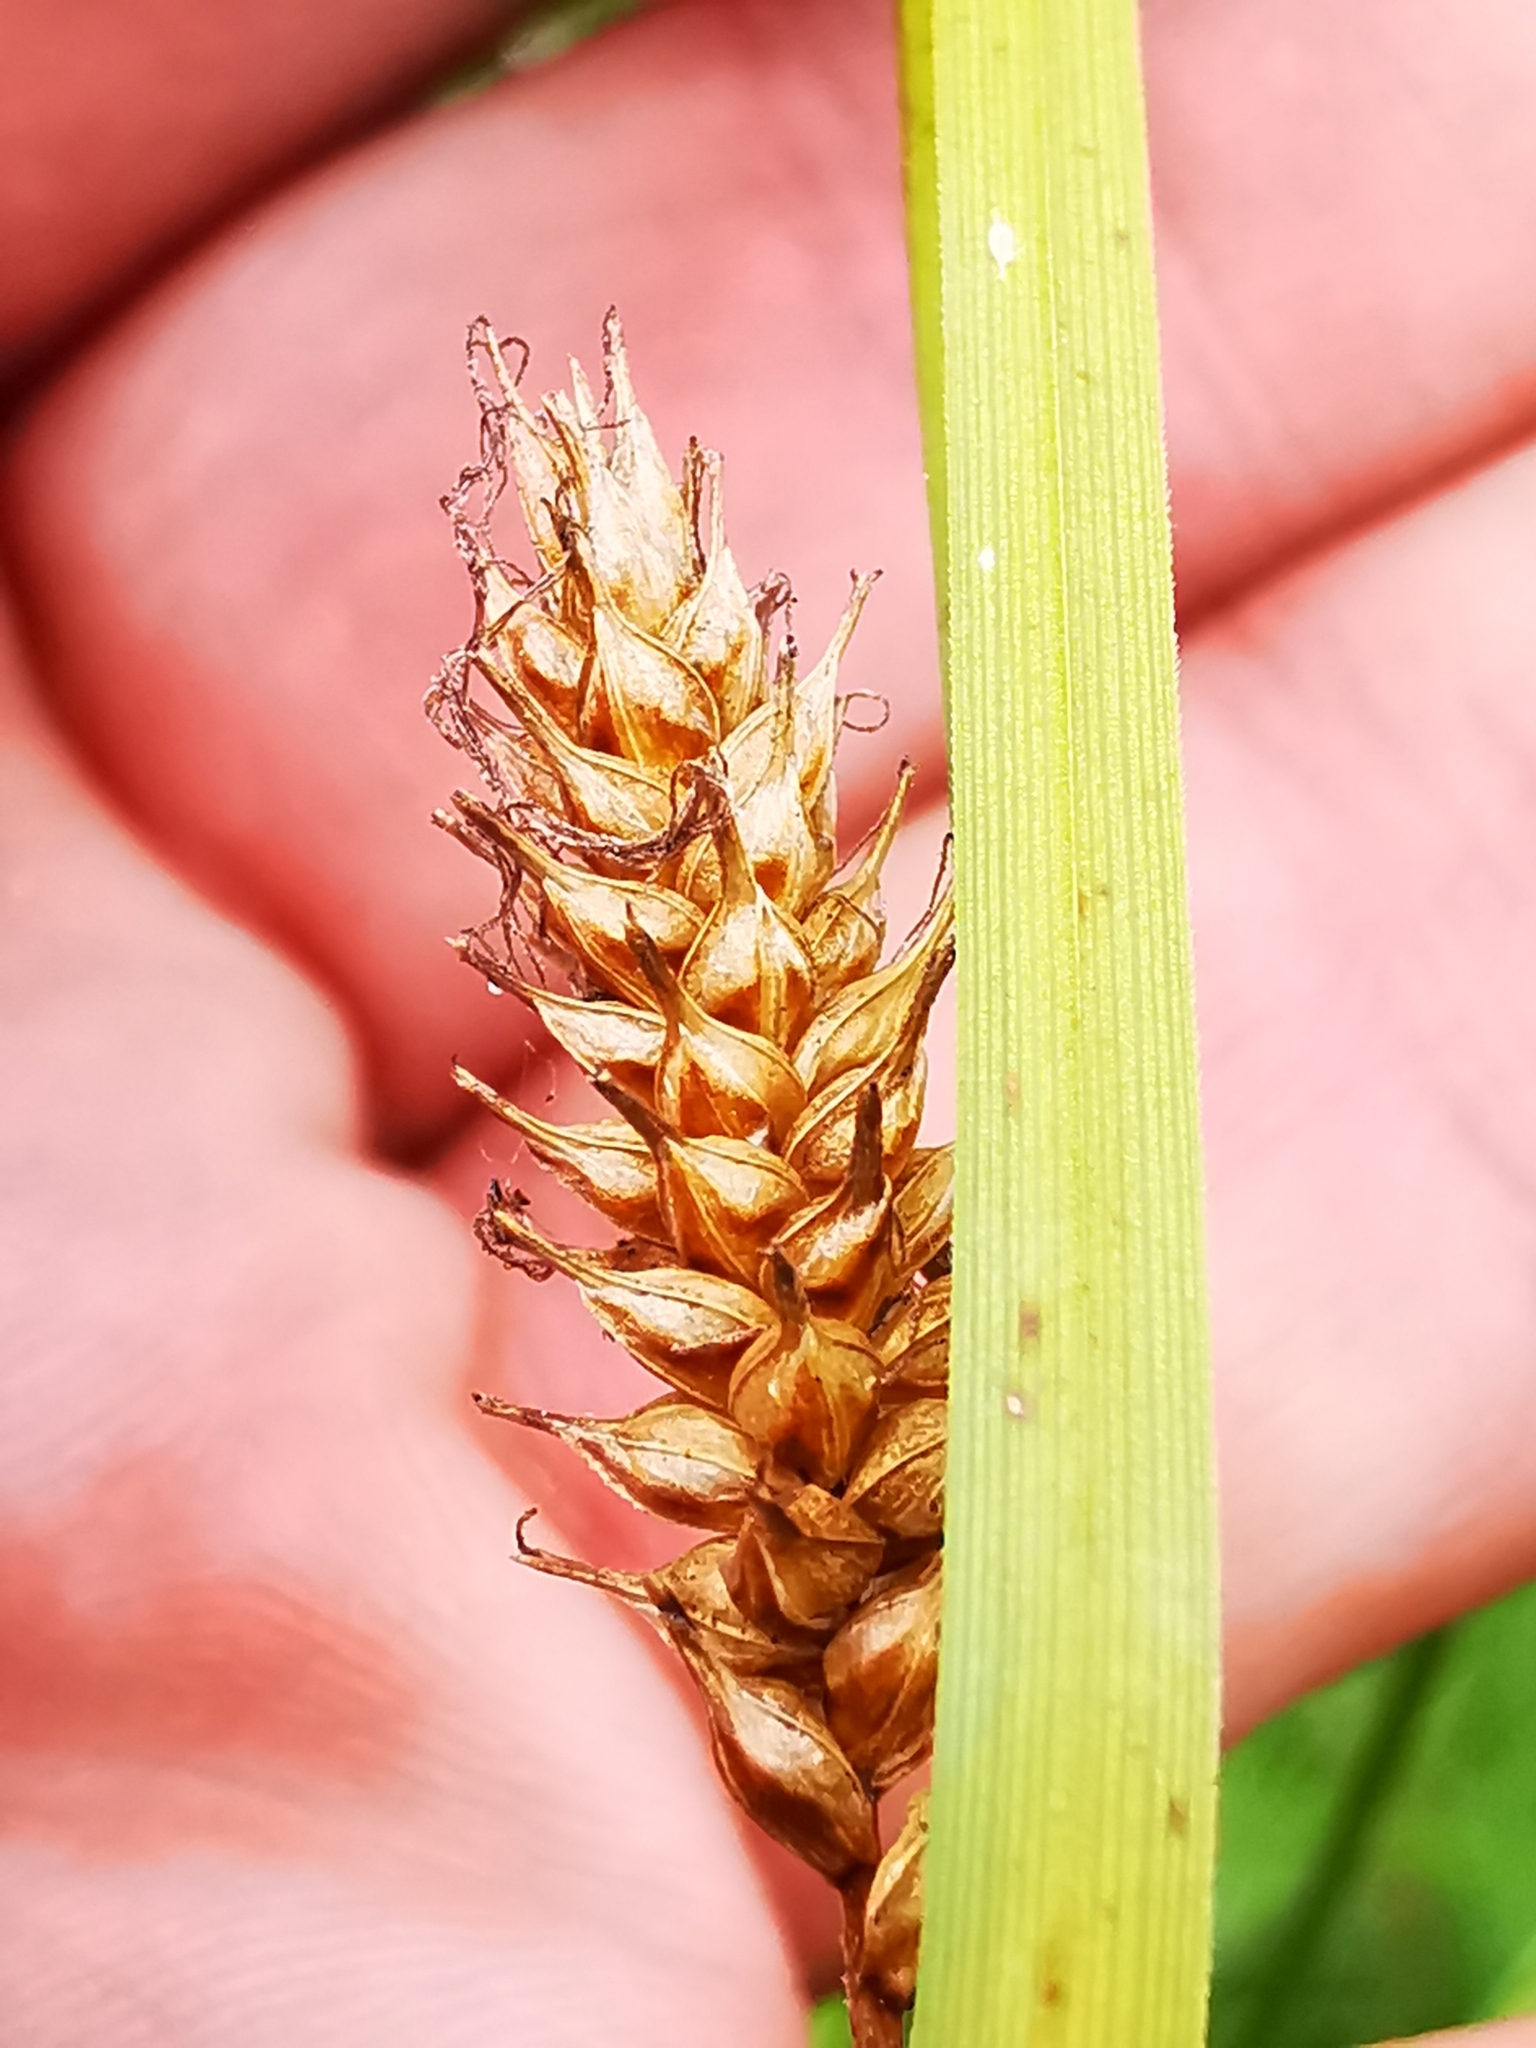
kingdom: Plantae
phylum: Tracheophyta
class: Liliopsida
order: Poales
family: Cyperaceae
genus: Carex
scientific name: Carex hostiana
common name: Tawny sedge
